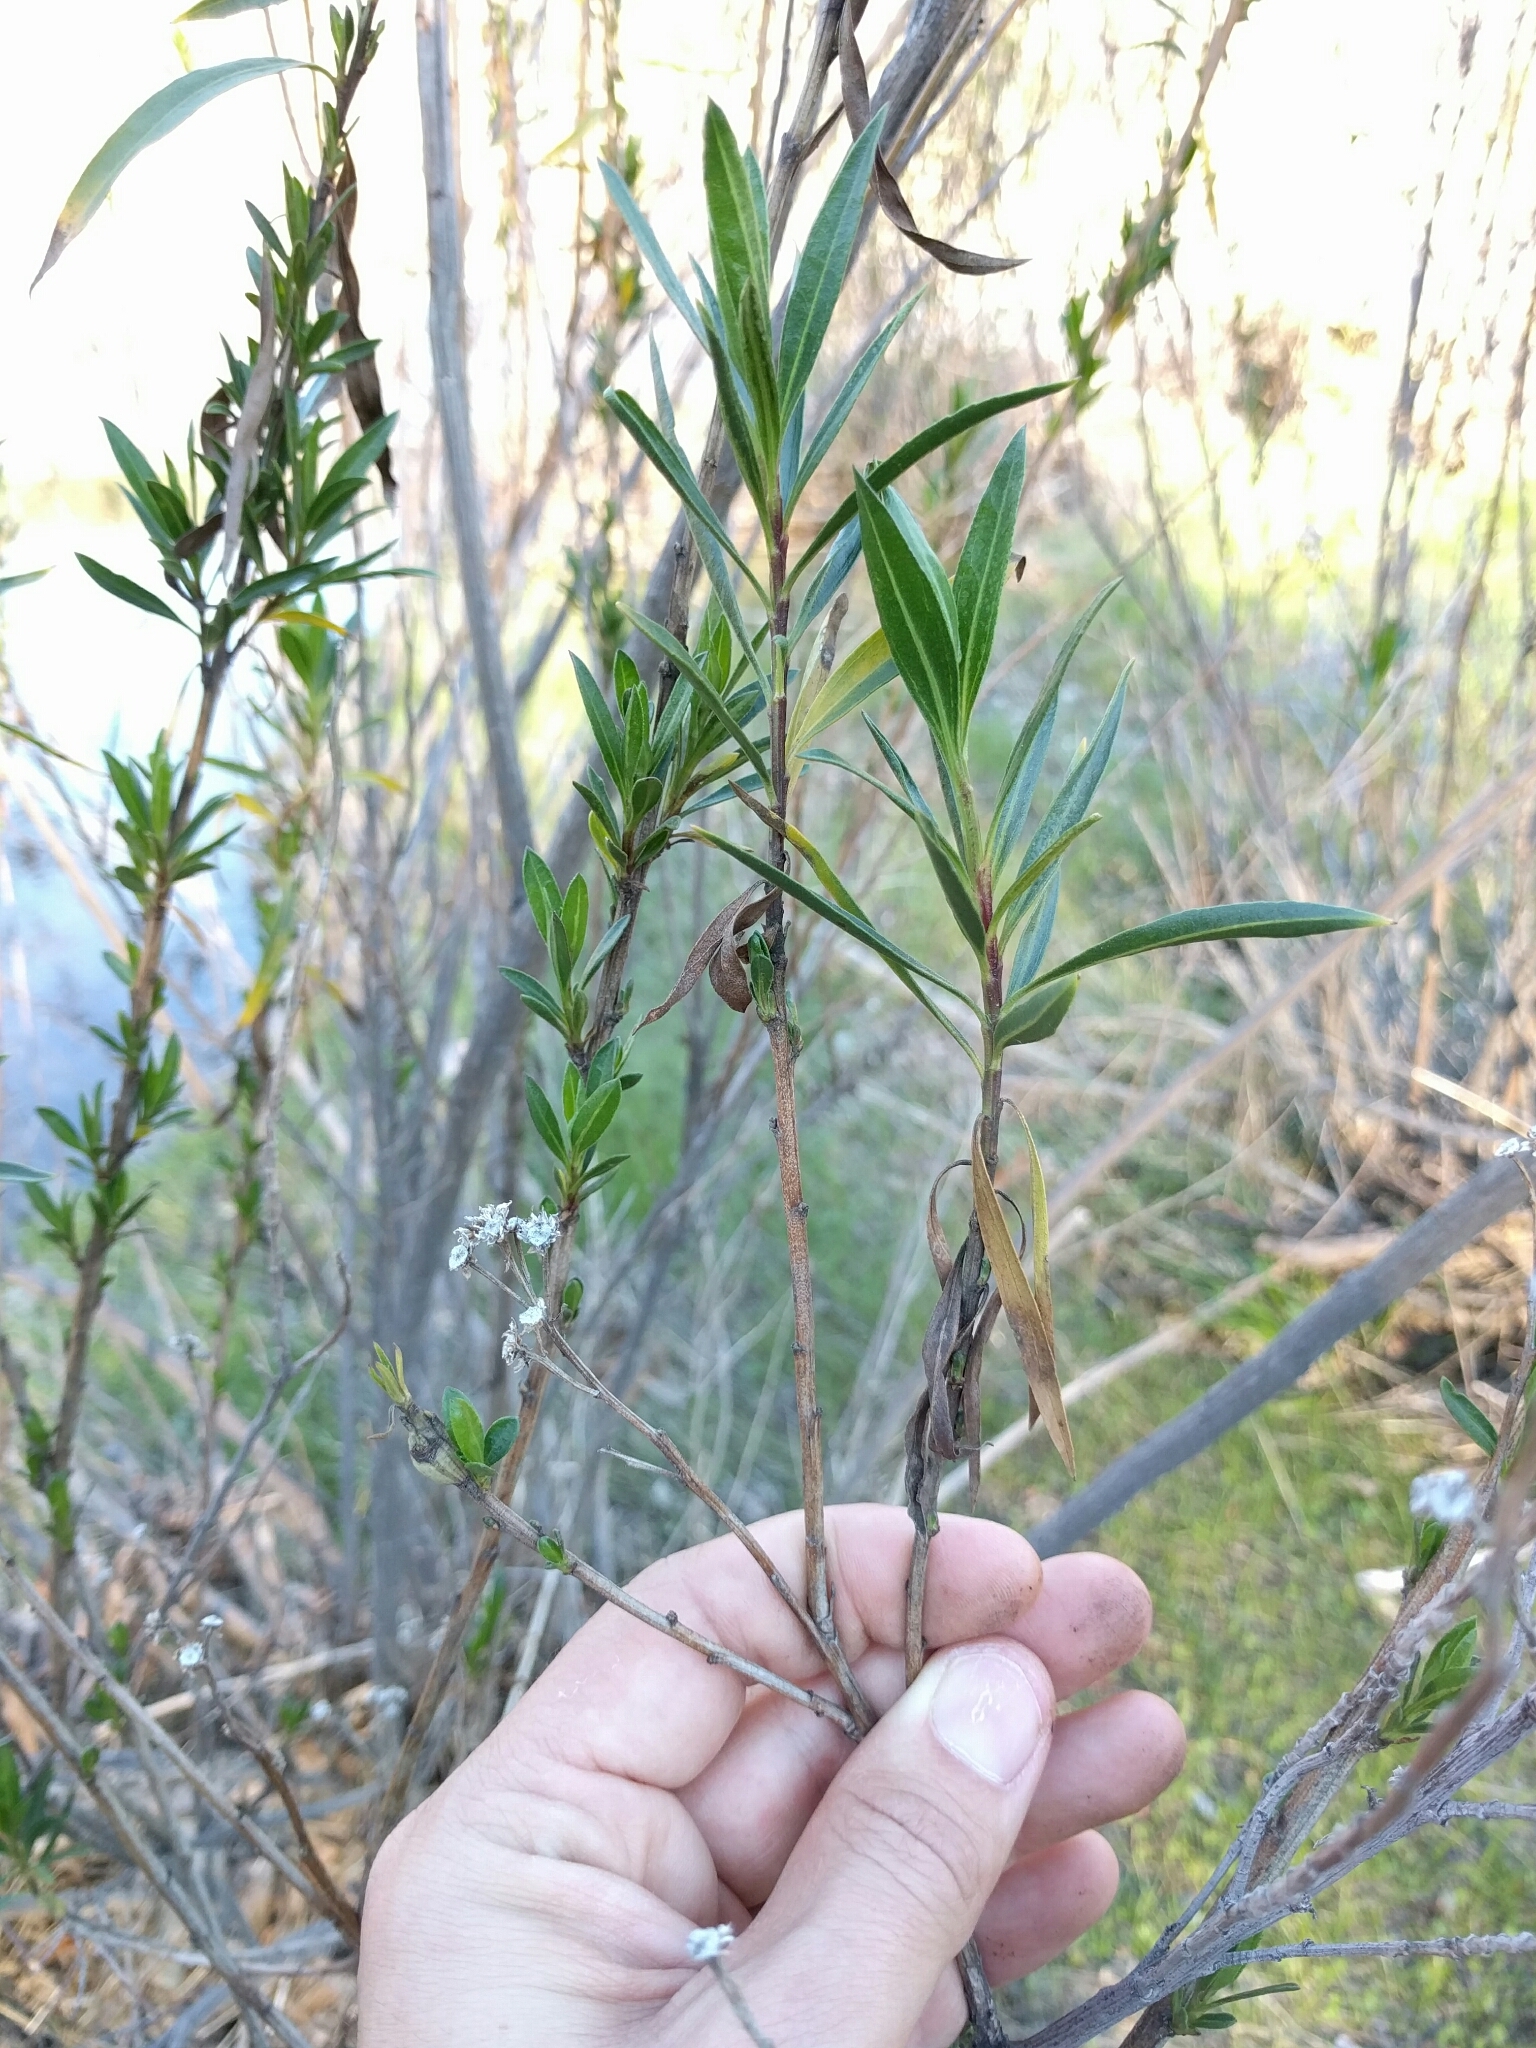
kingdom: Plantae
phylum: Tracheophyta
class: Magnoliopsida
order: Asterales
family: Asteraceae
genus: Baccharis
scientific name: Baccharis salicifolia
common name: Sticky baccharis
